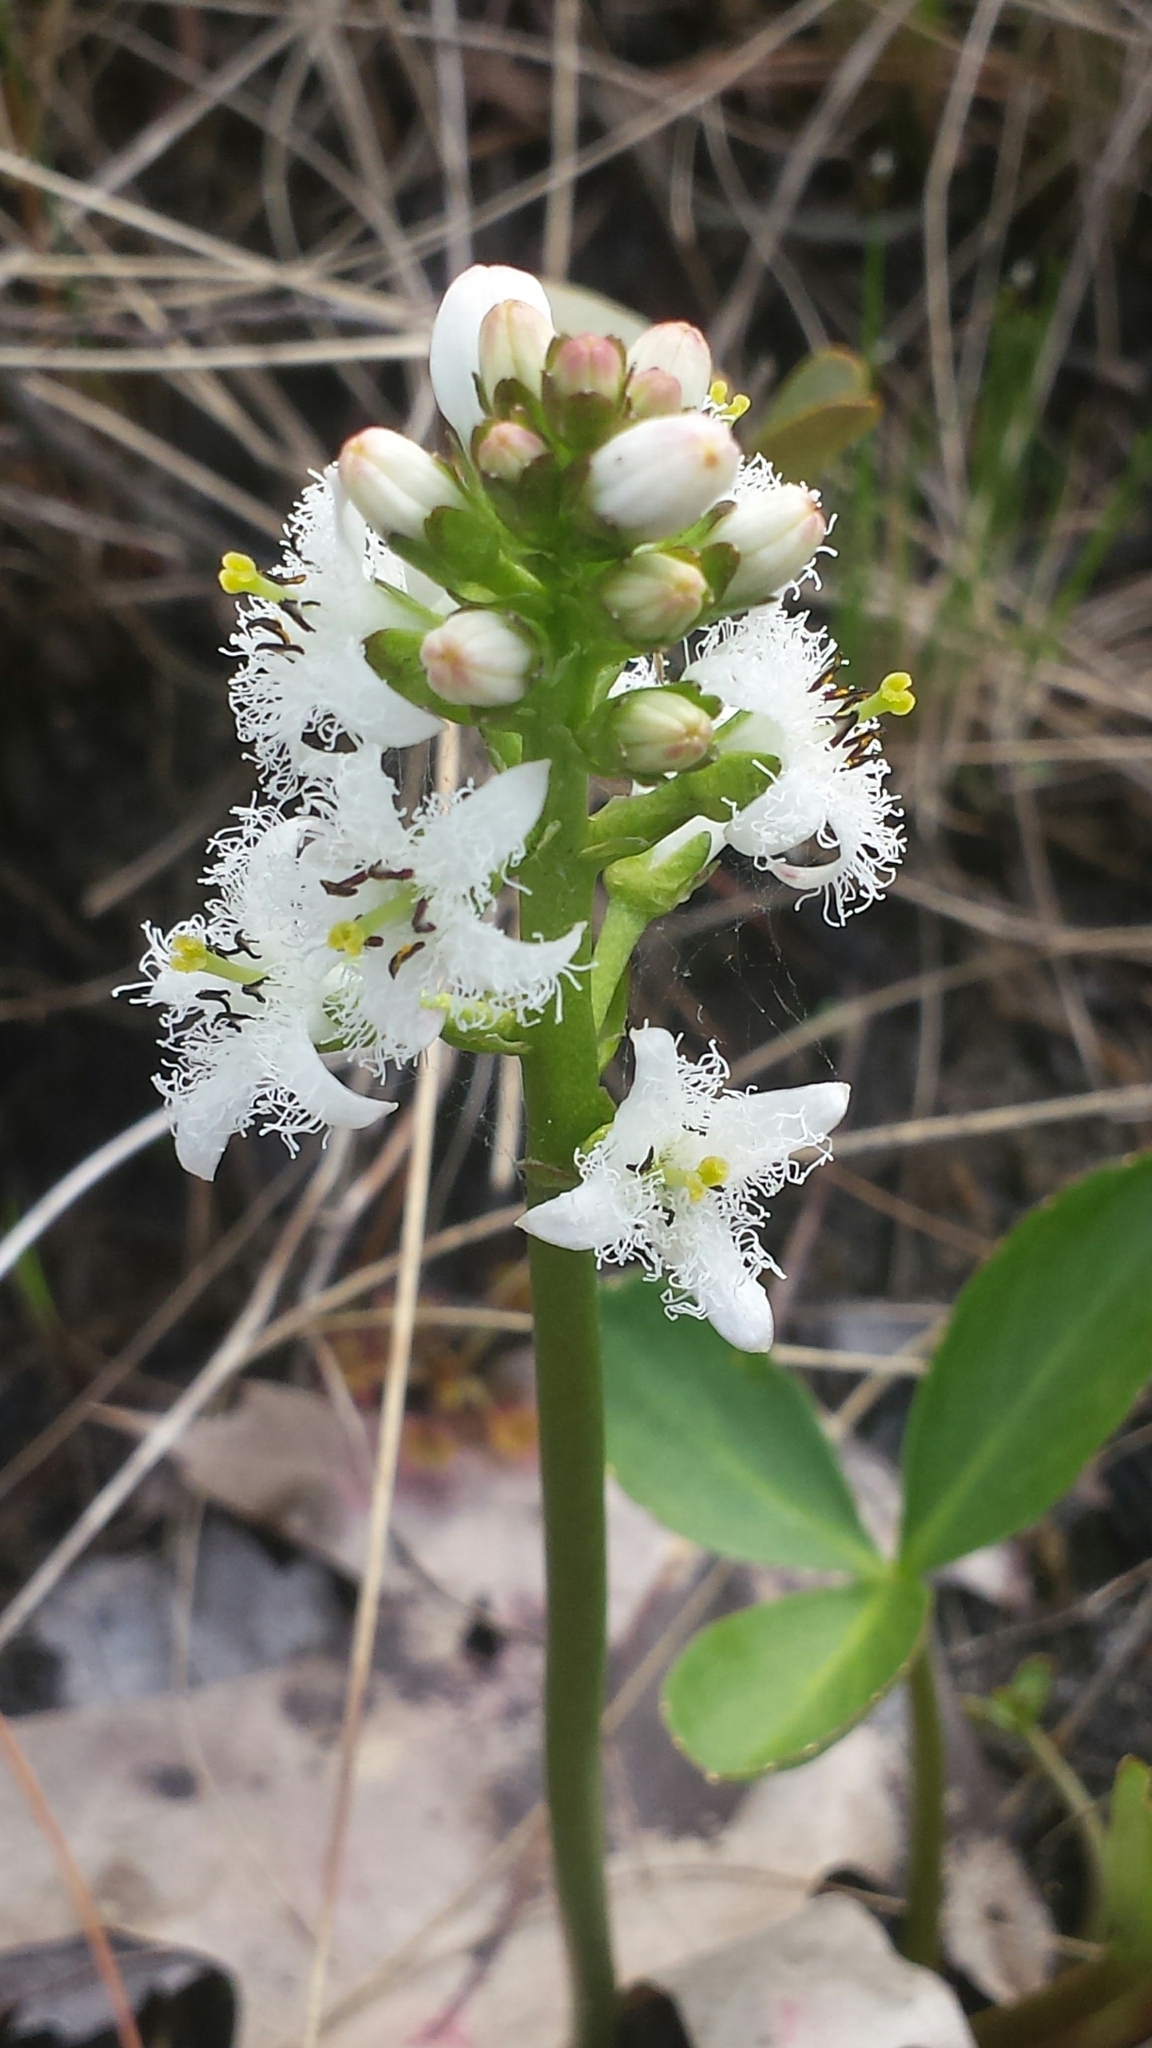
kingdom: Plantae
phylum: Tracheophyta
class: Magnoliopsida
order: Asterales
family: Menyanthaceae
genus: Menyanthes
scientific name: Menyanthes trifoliata
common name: Bogbean
